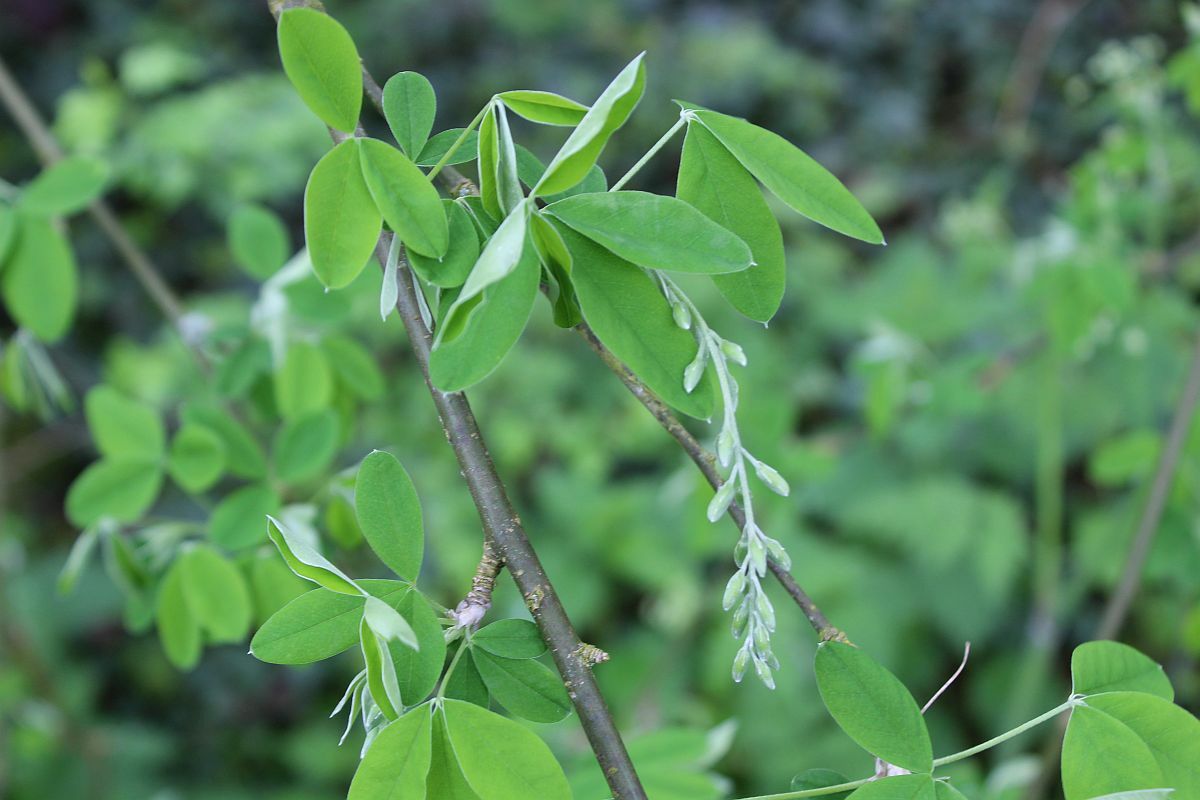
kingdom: Plantae
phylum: Tracheophyta
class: Magnoliopsida
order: Fabales
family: Fabaceae
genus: Laburnum
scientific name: Laburnum anagyroides
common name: Laburnum
